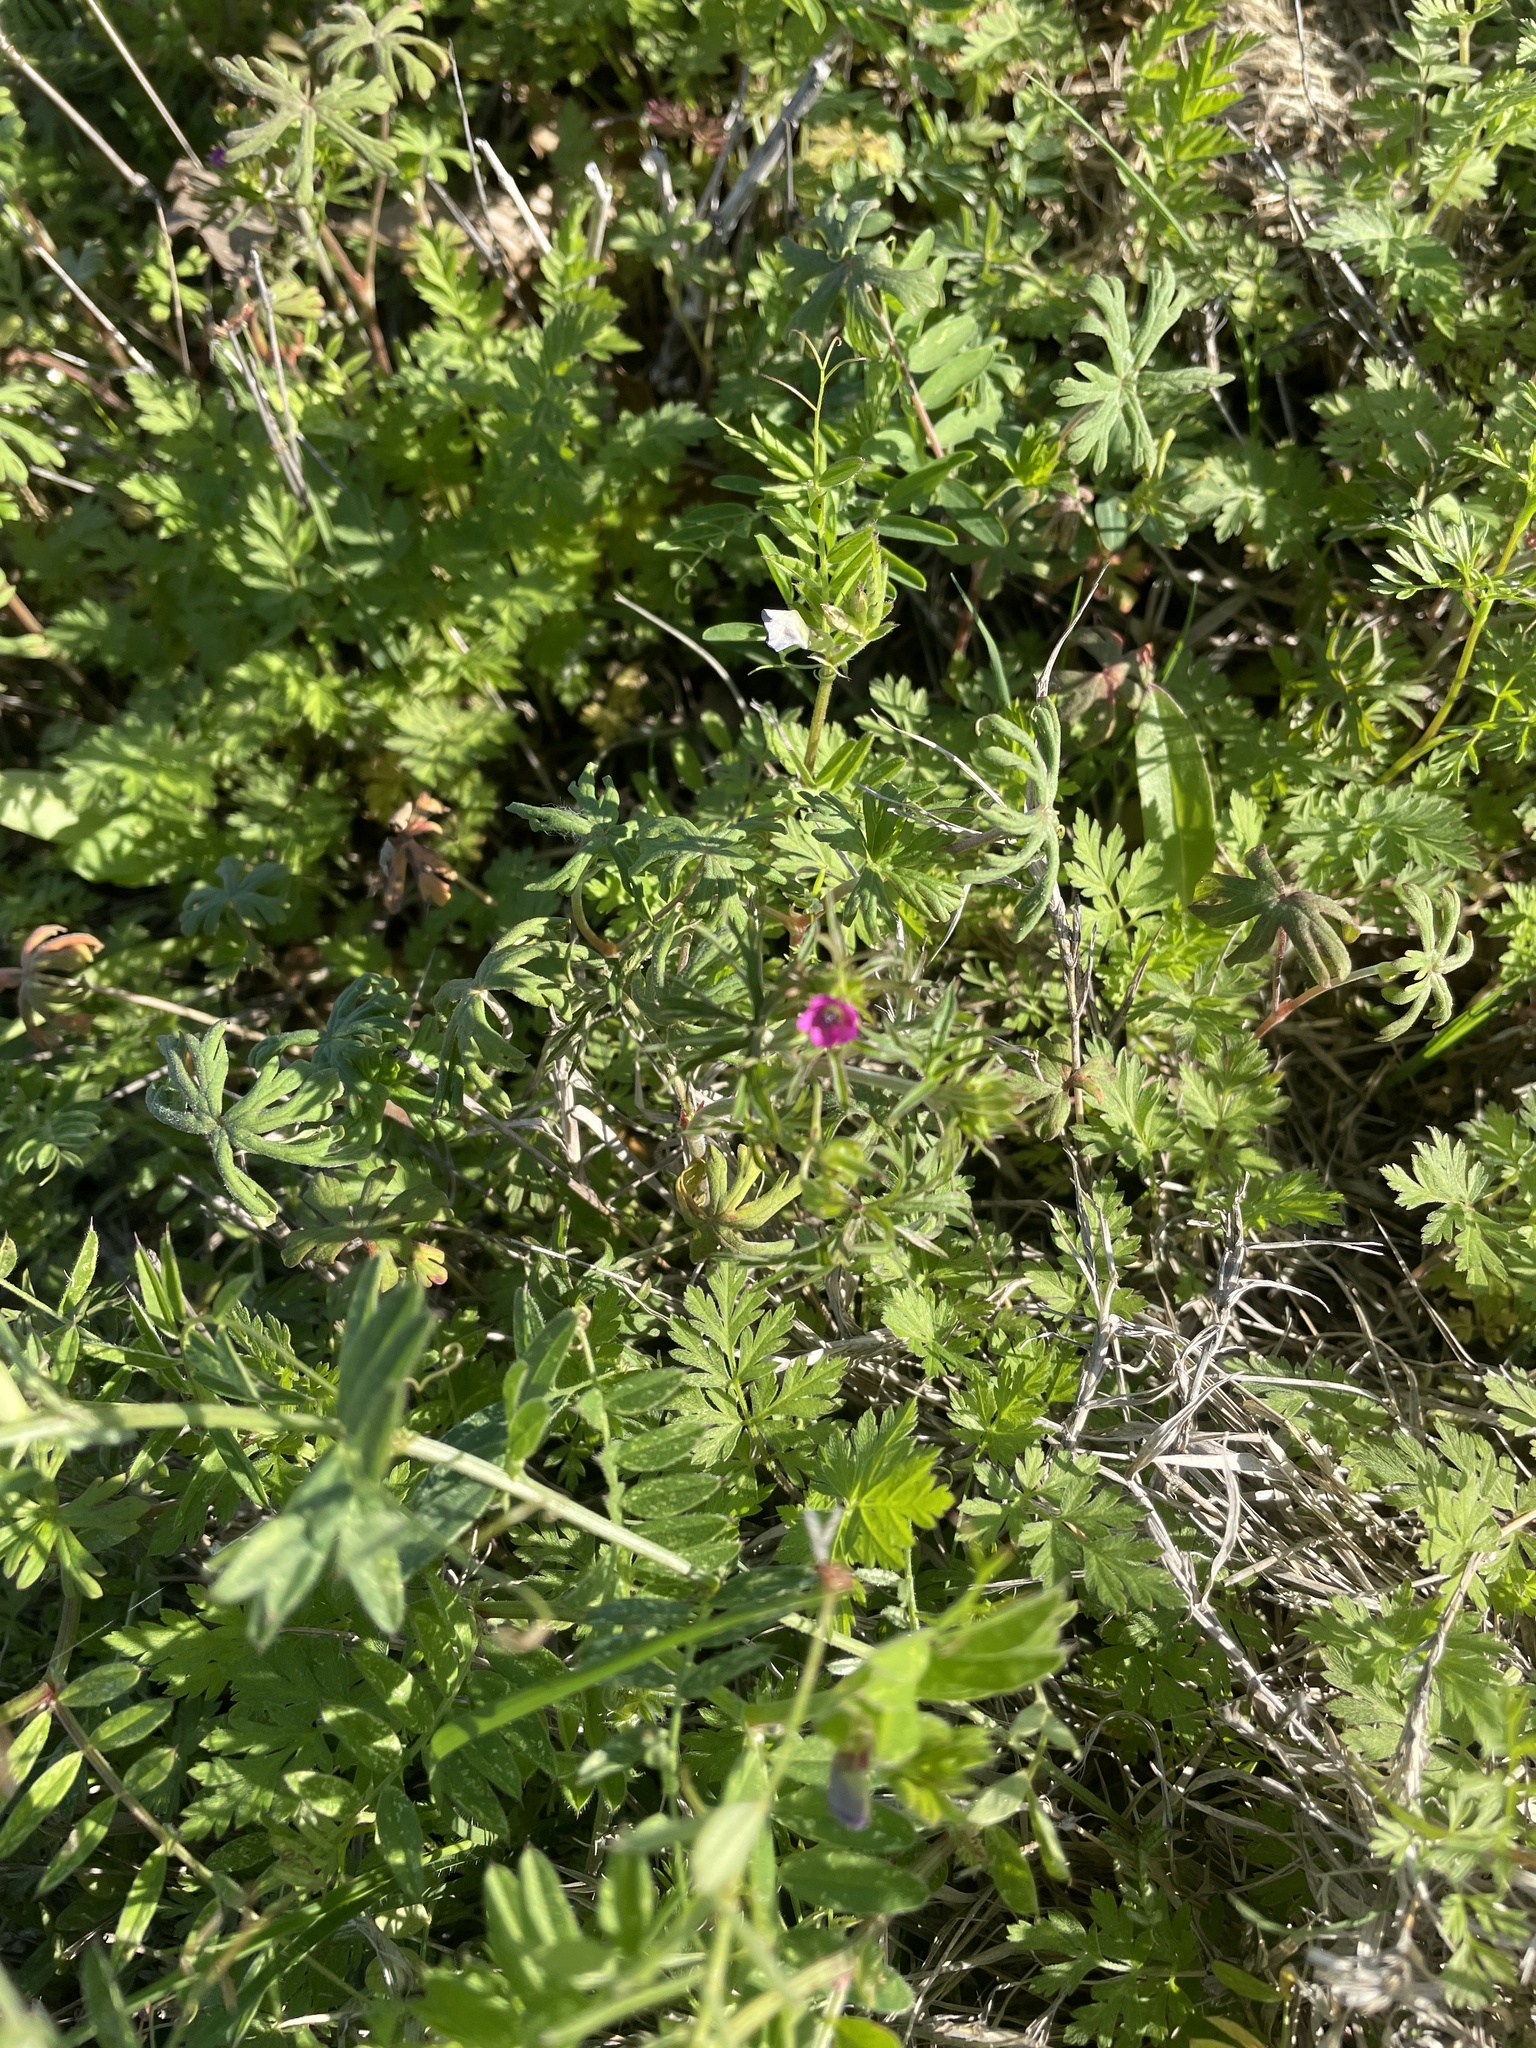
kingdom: Plantae
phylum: Tracheophyta
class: Magnoliopsida
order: Geraniales
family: Geraniaceae
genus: Geranium
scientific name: Geranium dissectum
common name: Cut-leaved crane's-bill
